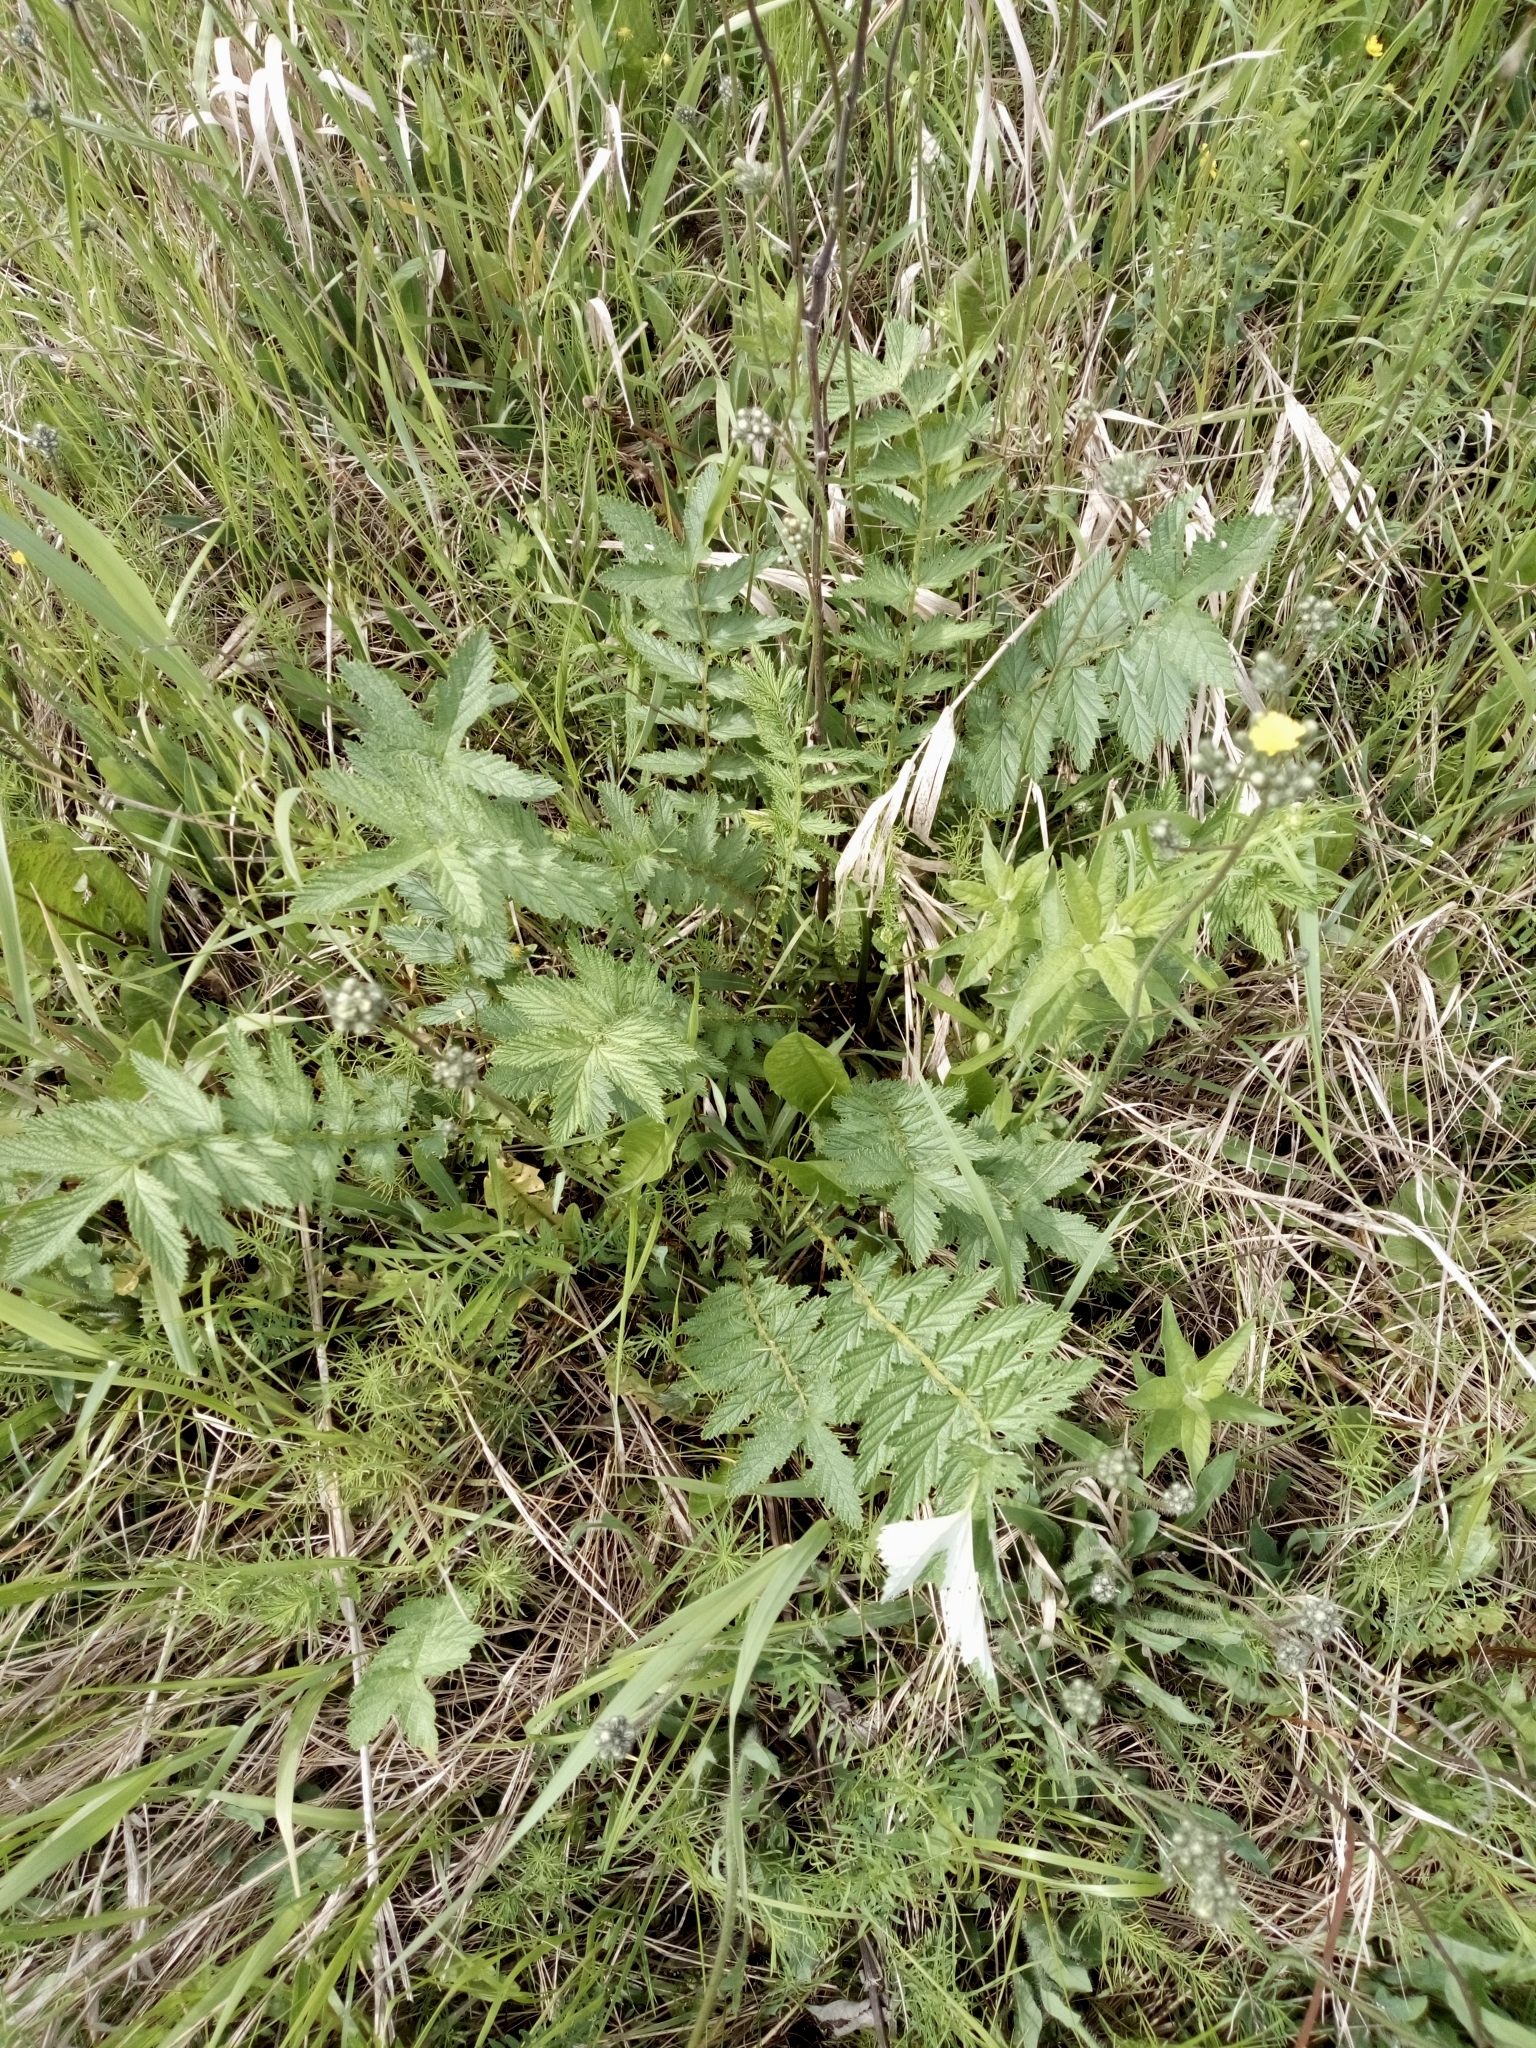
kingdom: Plantae
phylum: Tracheophyta
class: Magnoliopsida
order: Rosales
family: Rosaceae
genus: Filipendula
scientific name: Filipendula ulmaria
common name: Meadowsweet
